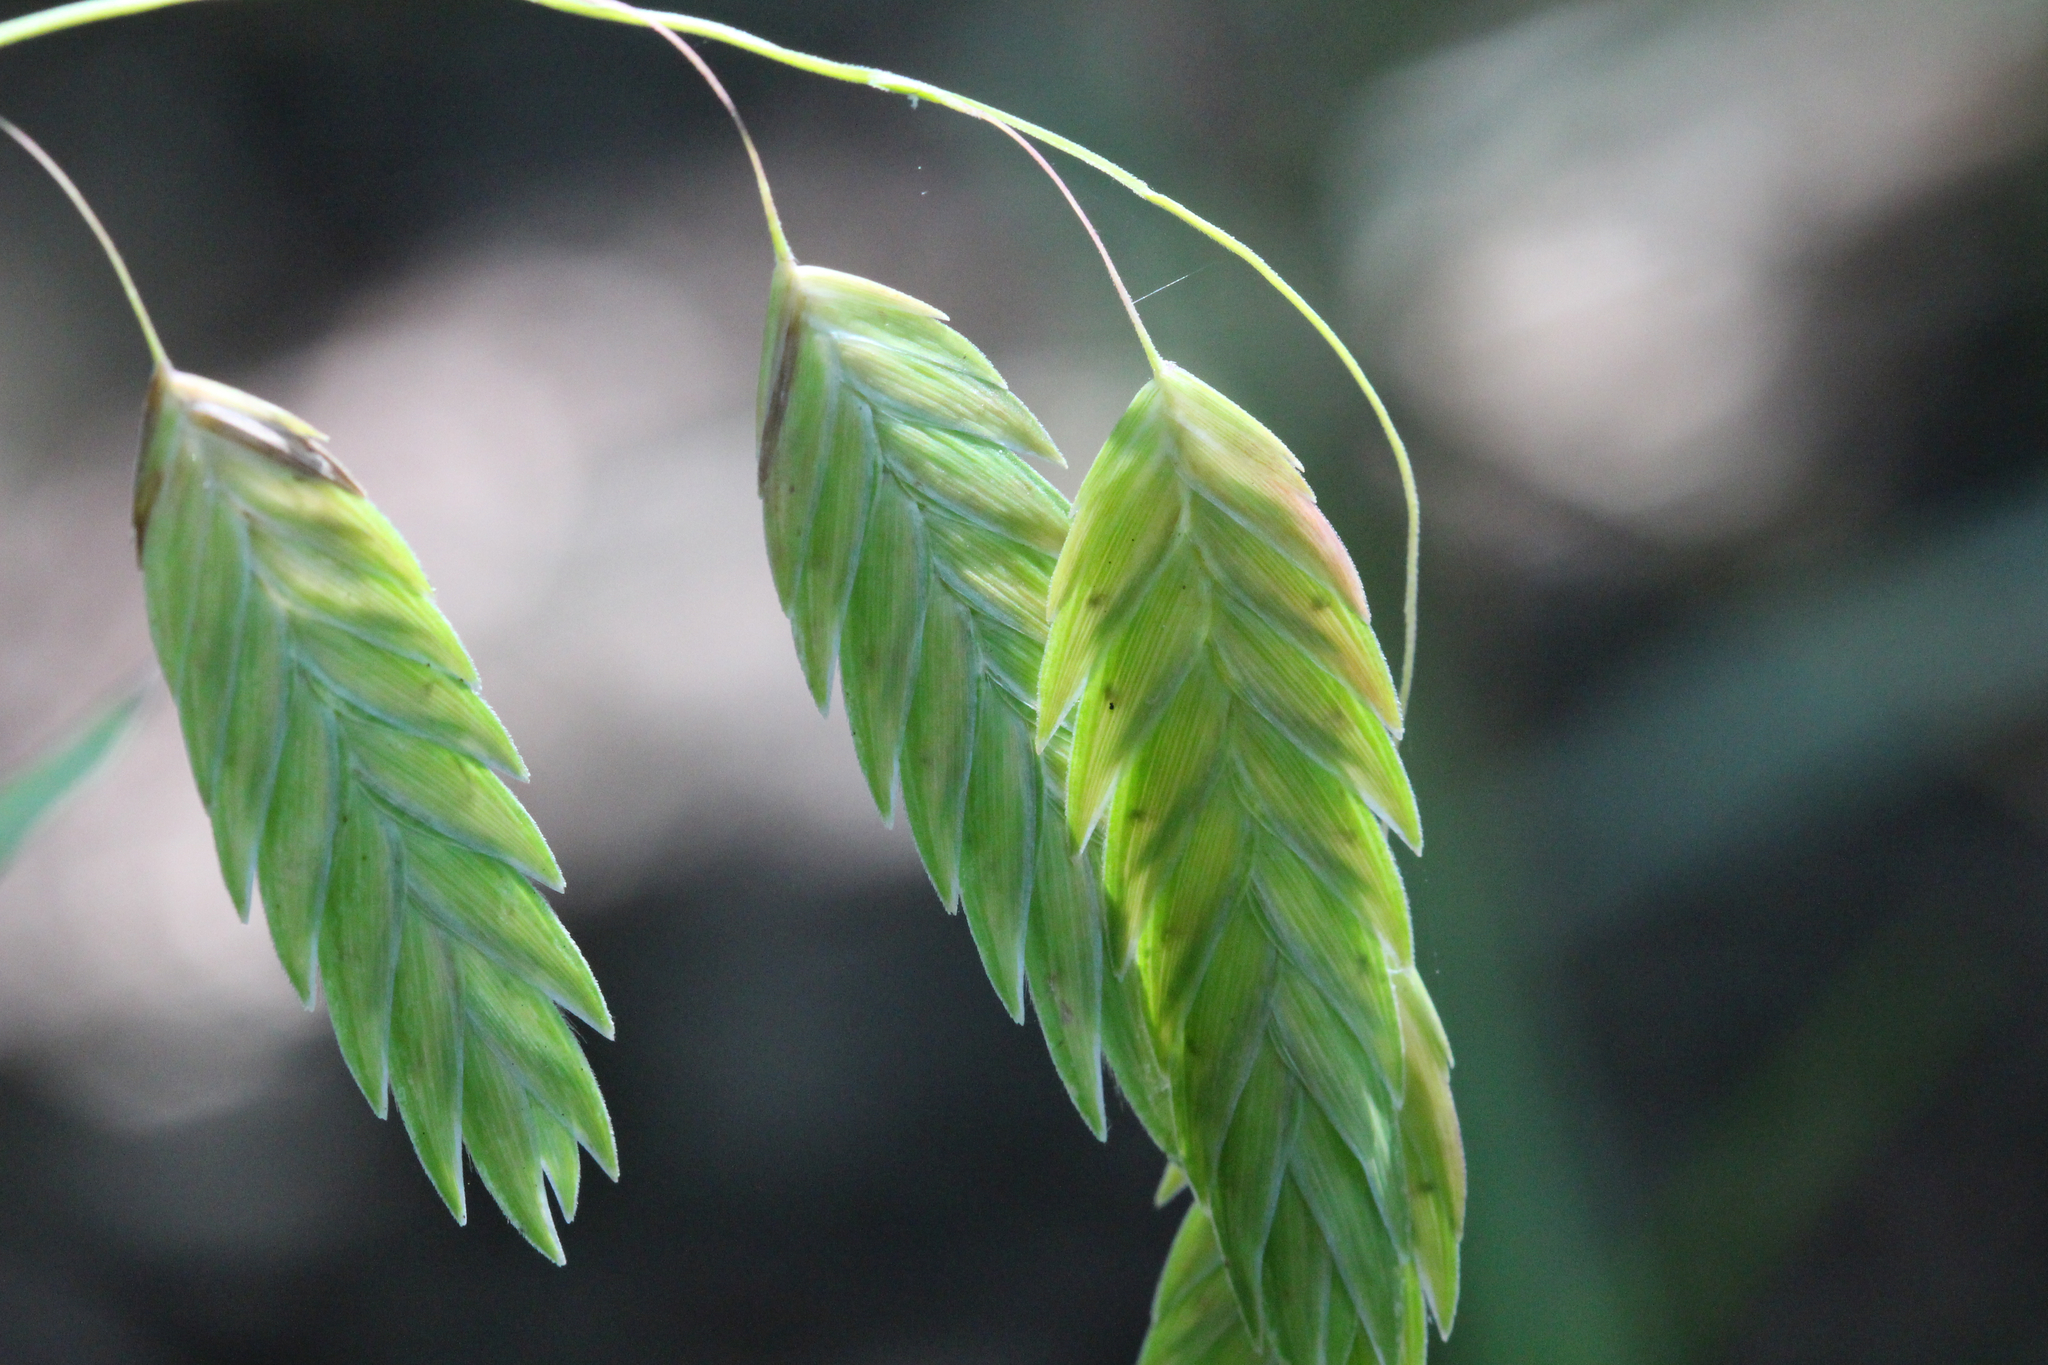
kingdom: Plantae
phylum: Tracheophyta
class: Liliopsida
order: Poales
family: Poaceae
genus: Chasmanthium
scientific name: Chasmanthium latifolium
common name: Broad-leaved chasmanthium
